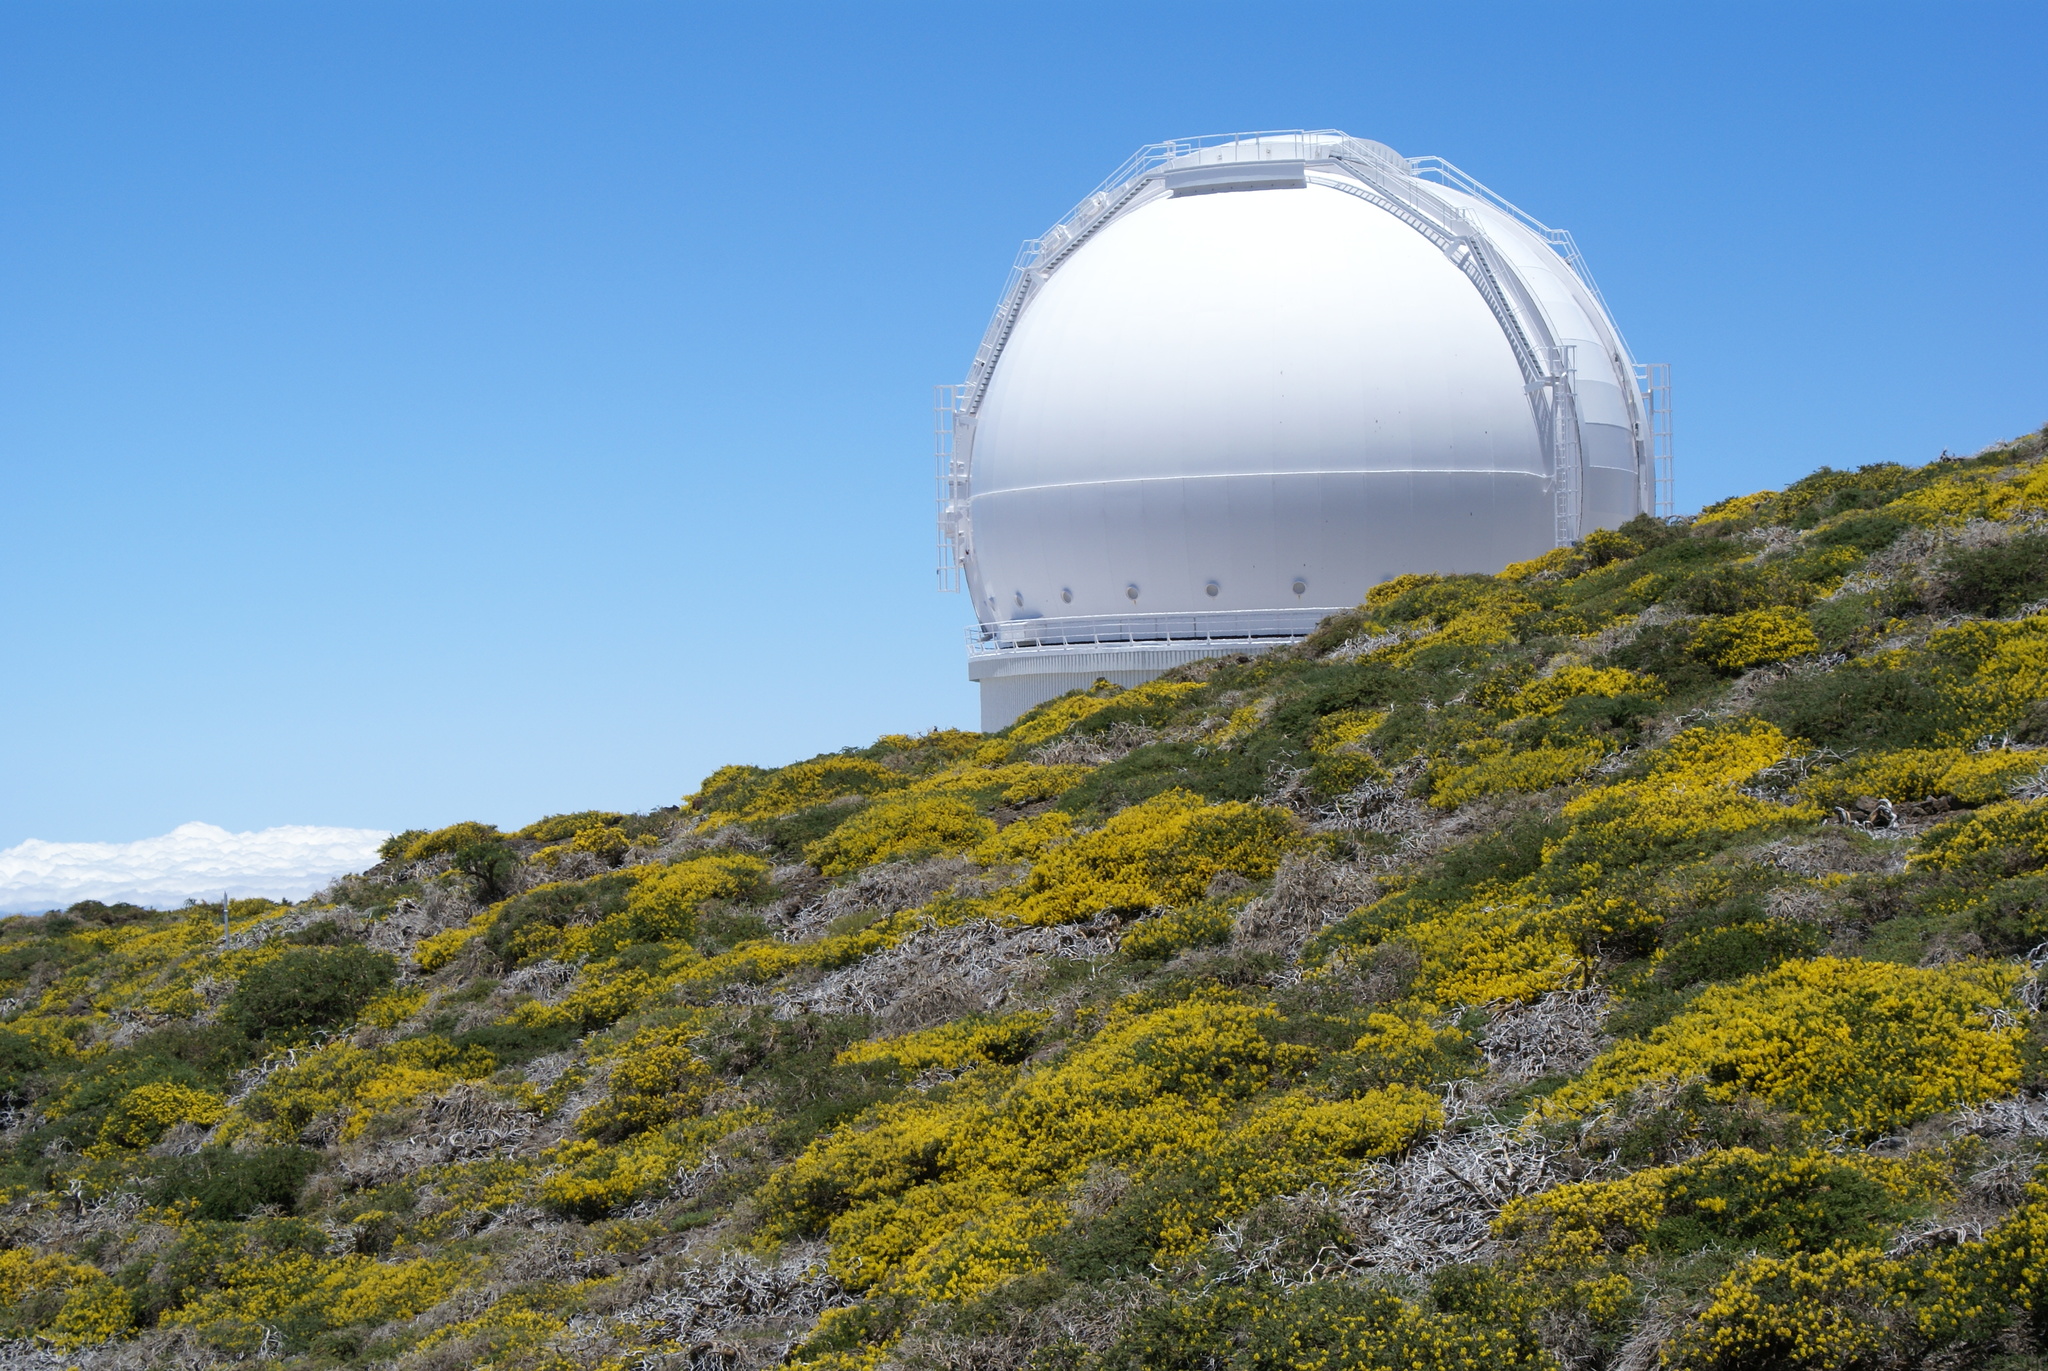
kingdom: Plantae
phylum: Tracheophyta
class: Magnoliopsida
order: Fabales
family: Fabaceae
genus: Adenocarpus
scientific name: Adenocarpus viscosus
